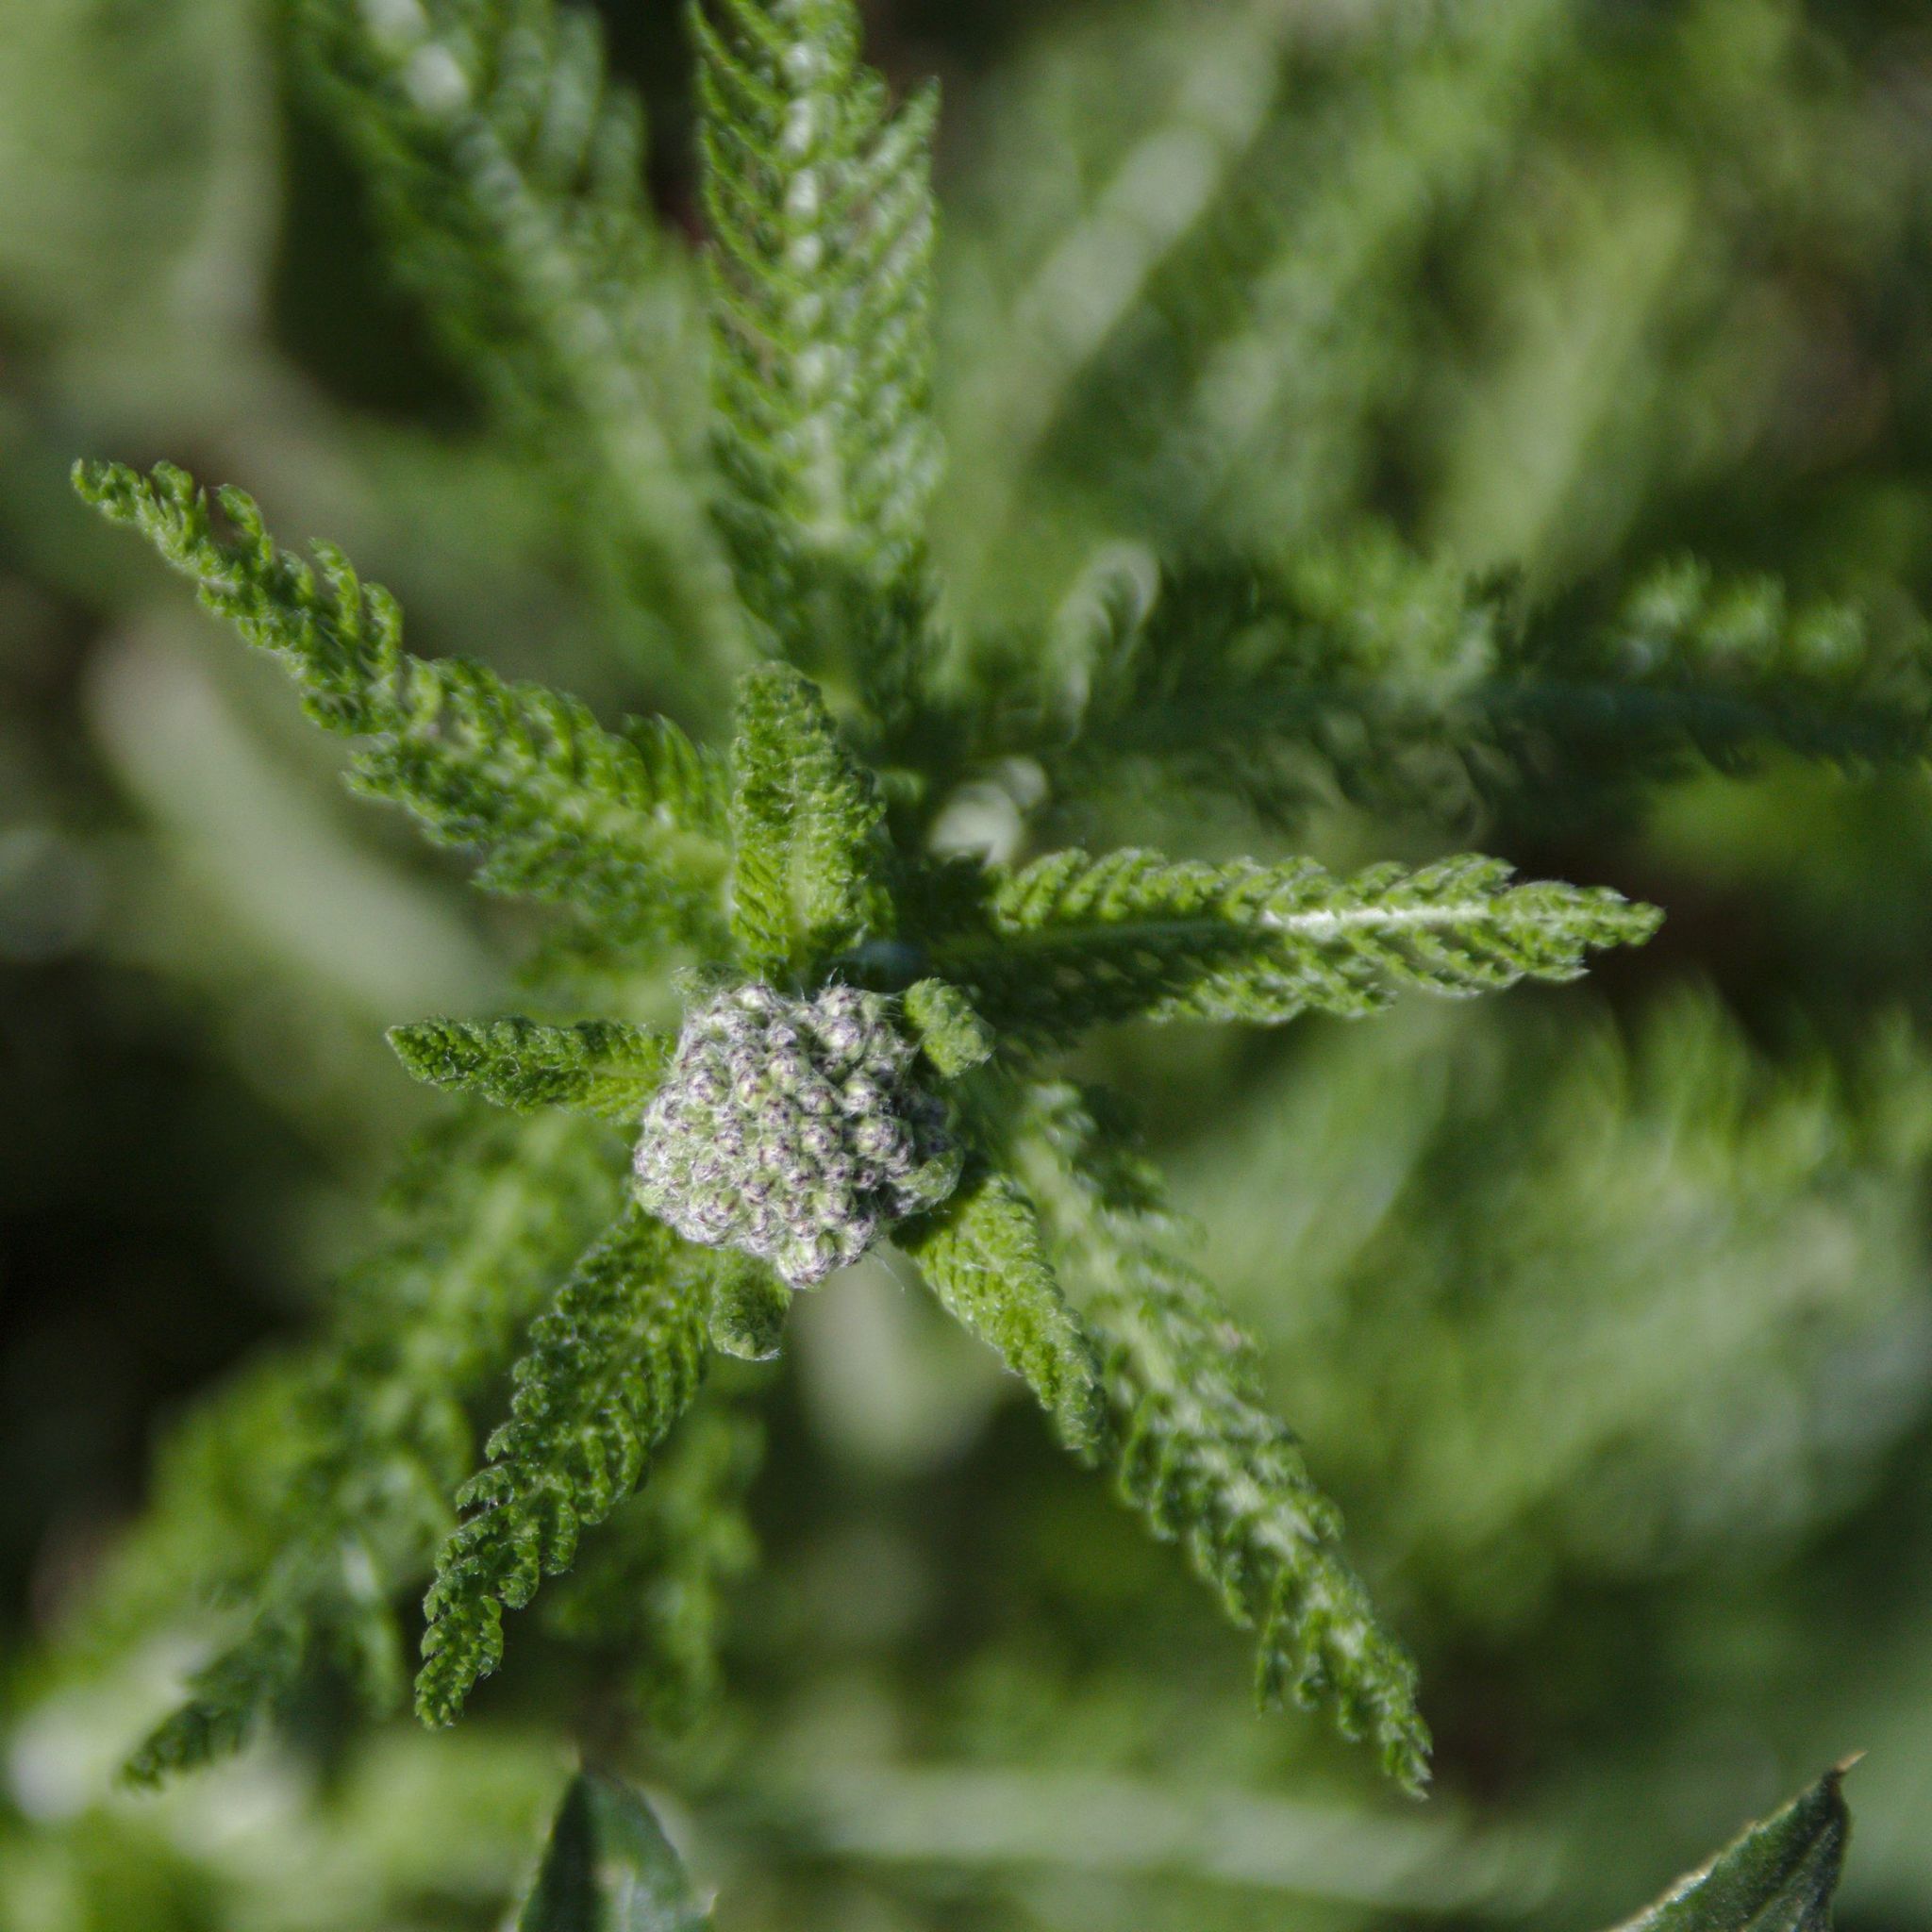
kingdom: Plantae
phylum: Tracheophyta
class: Magnoliopsida
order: Asterales
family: Asteraceae
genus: Achillea
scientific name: Achillea millefolium
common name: Yarrow
